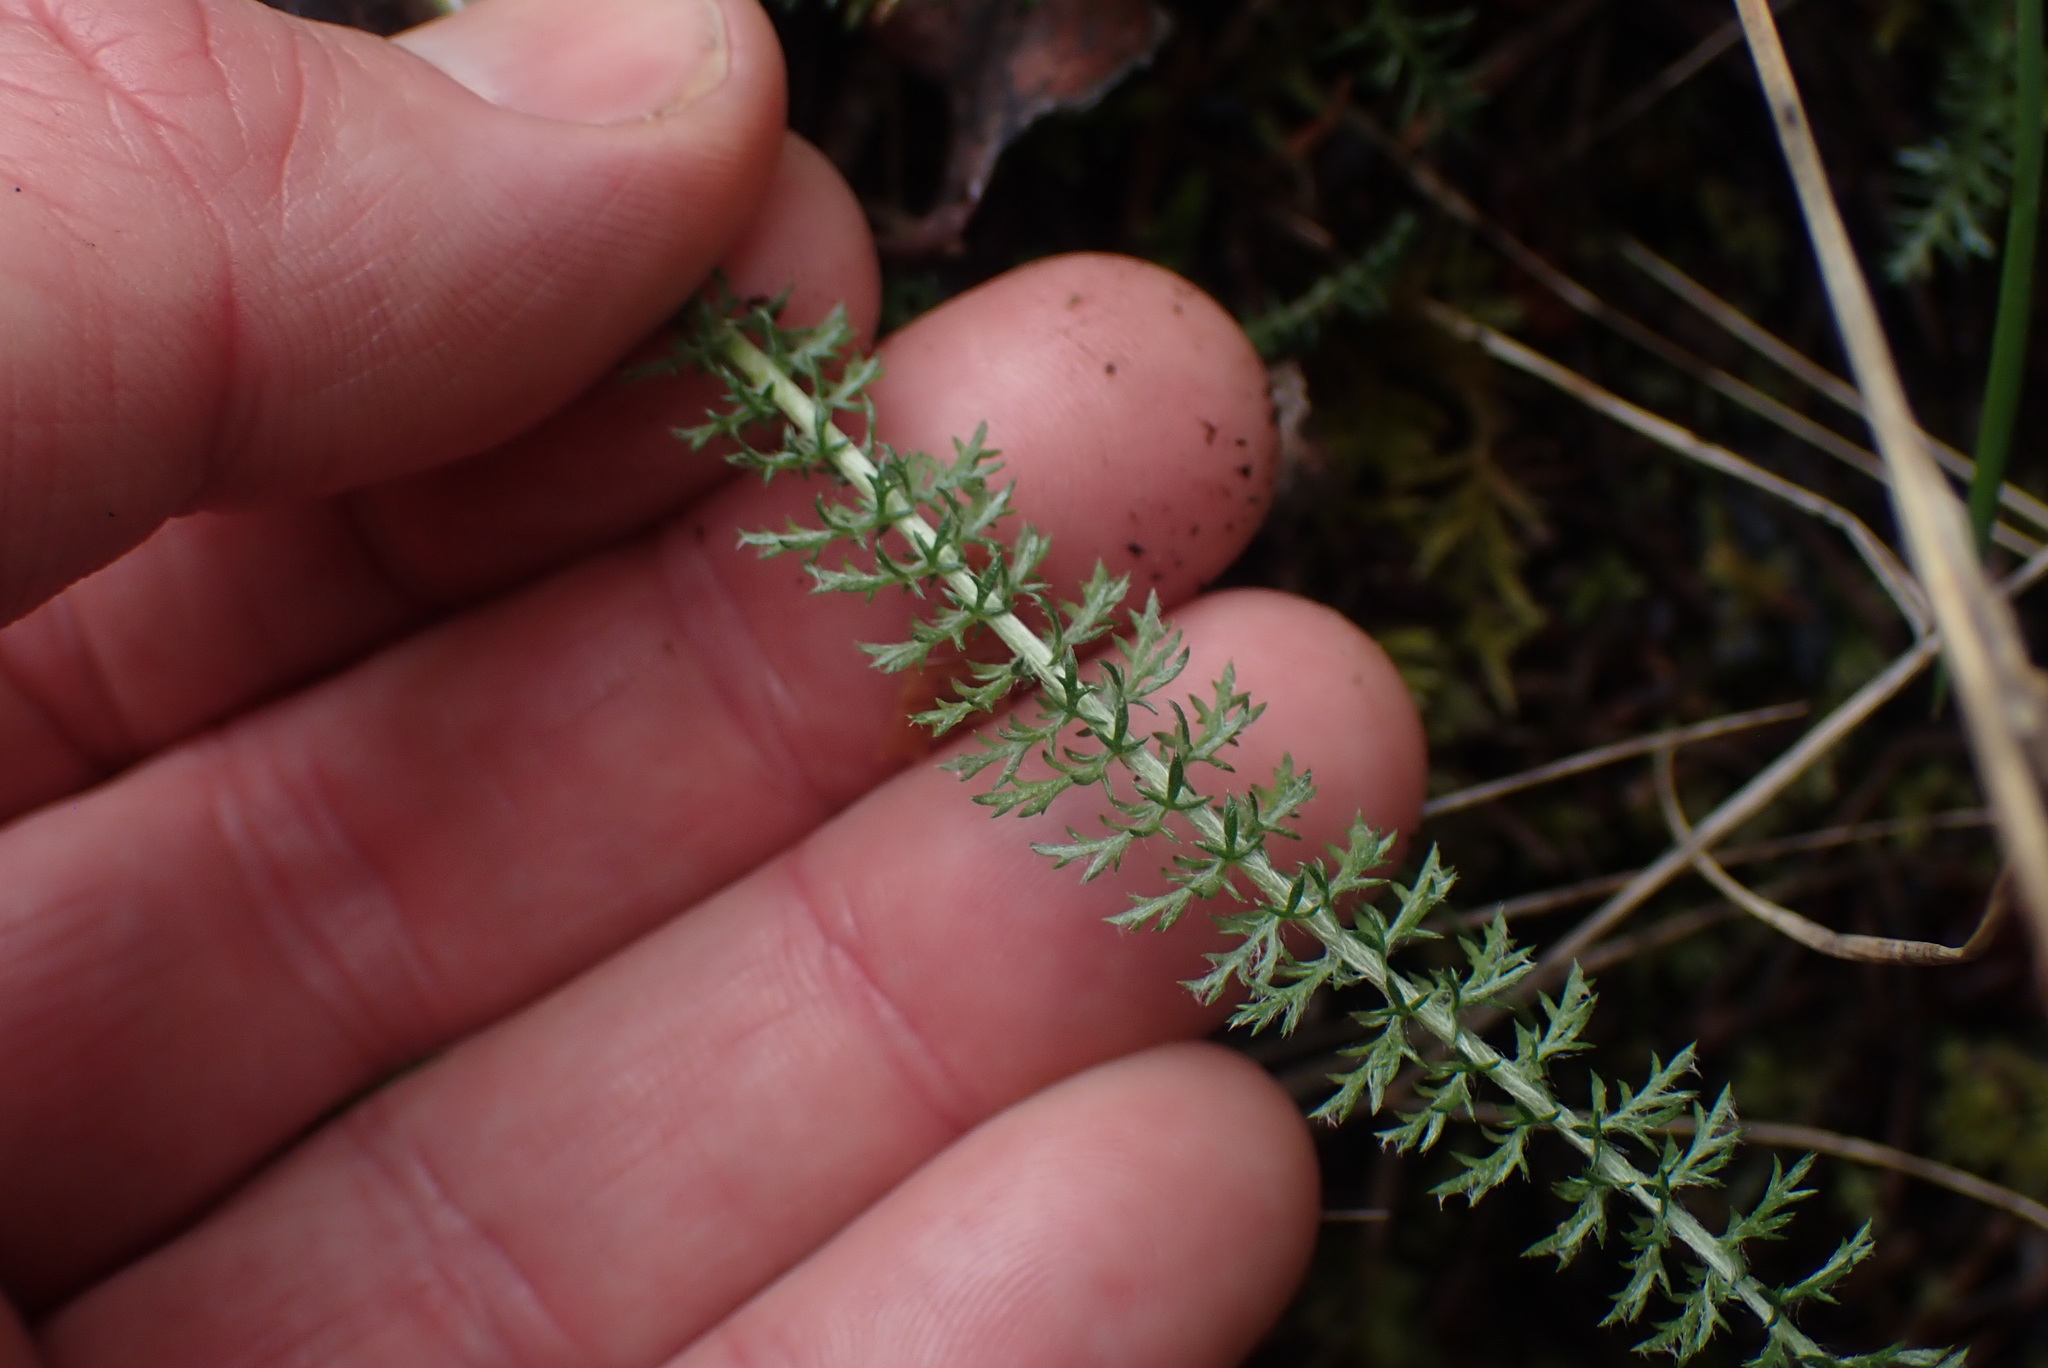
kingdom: Plantae
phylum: Tracheophyta
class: Magnoliopsida
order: Asterales
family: Asteraceae
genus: Achillea
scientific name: Achillea millefolium
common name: Yarrow
